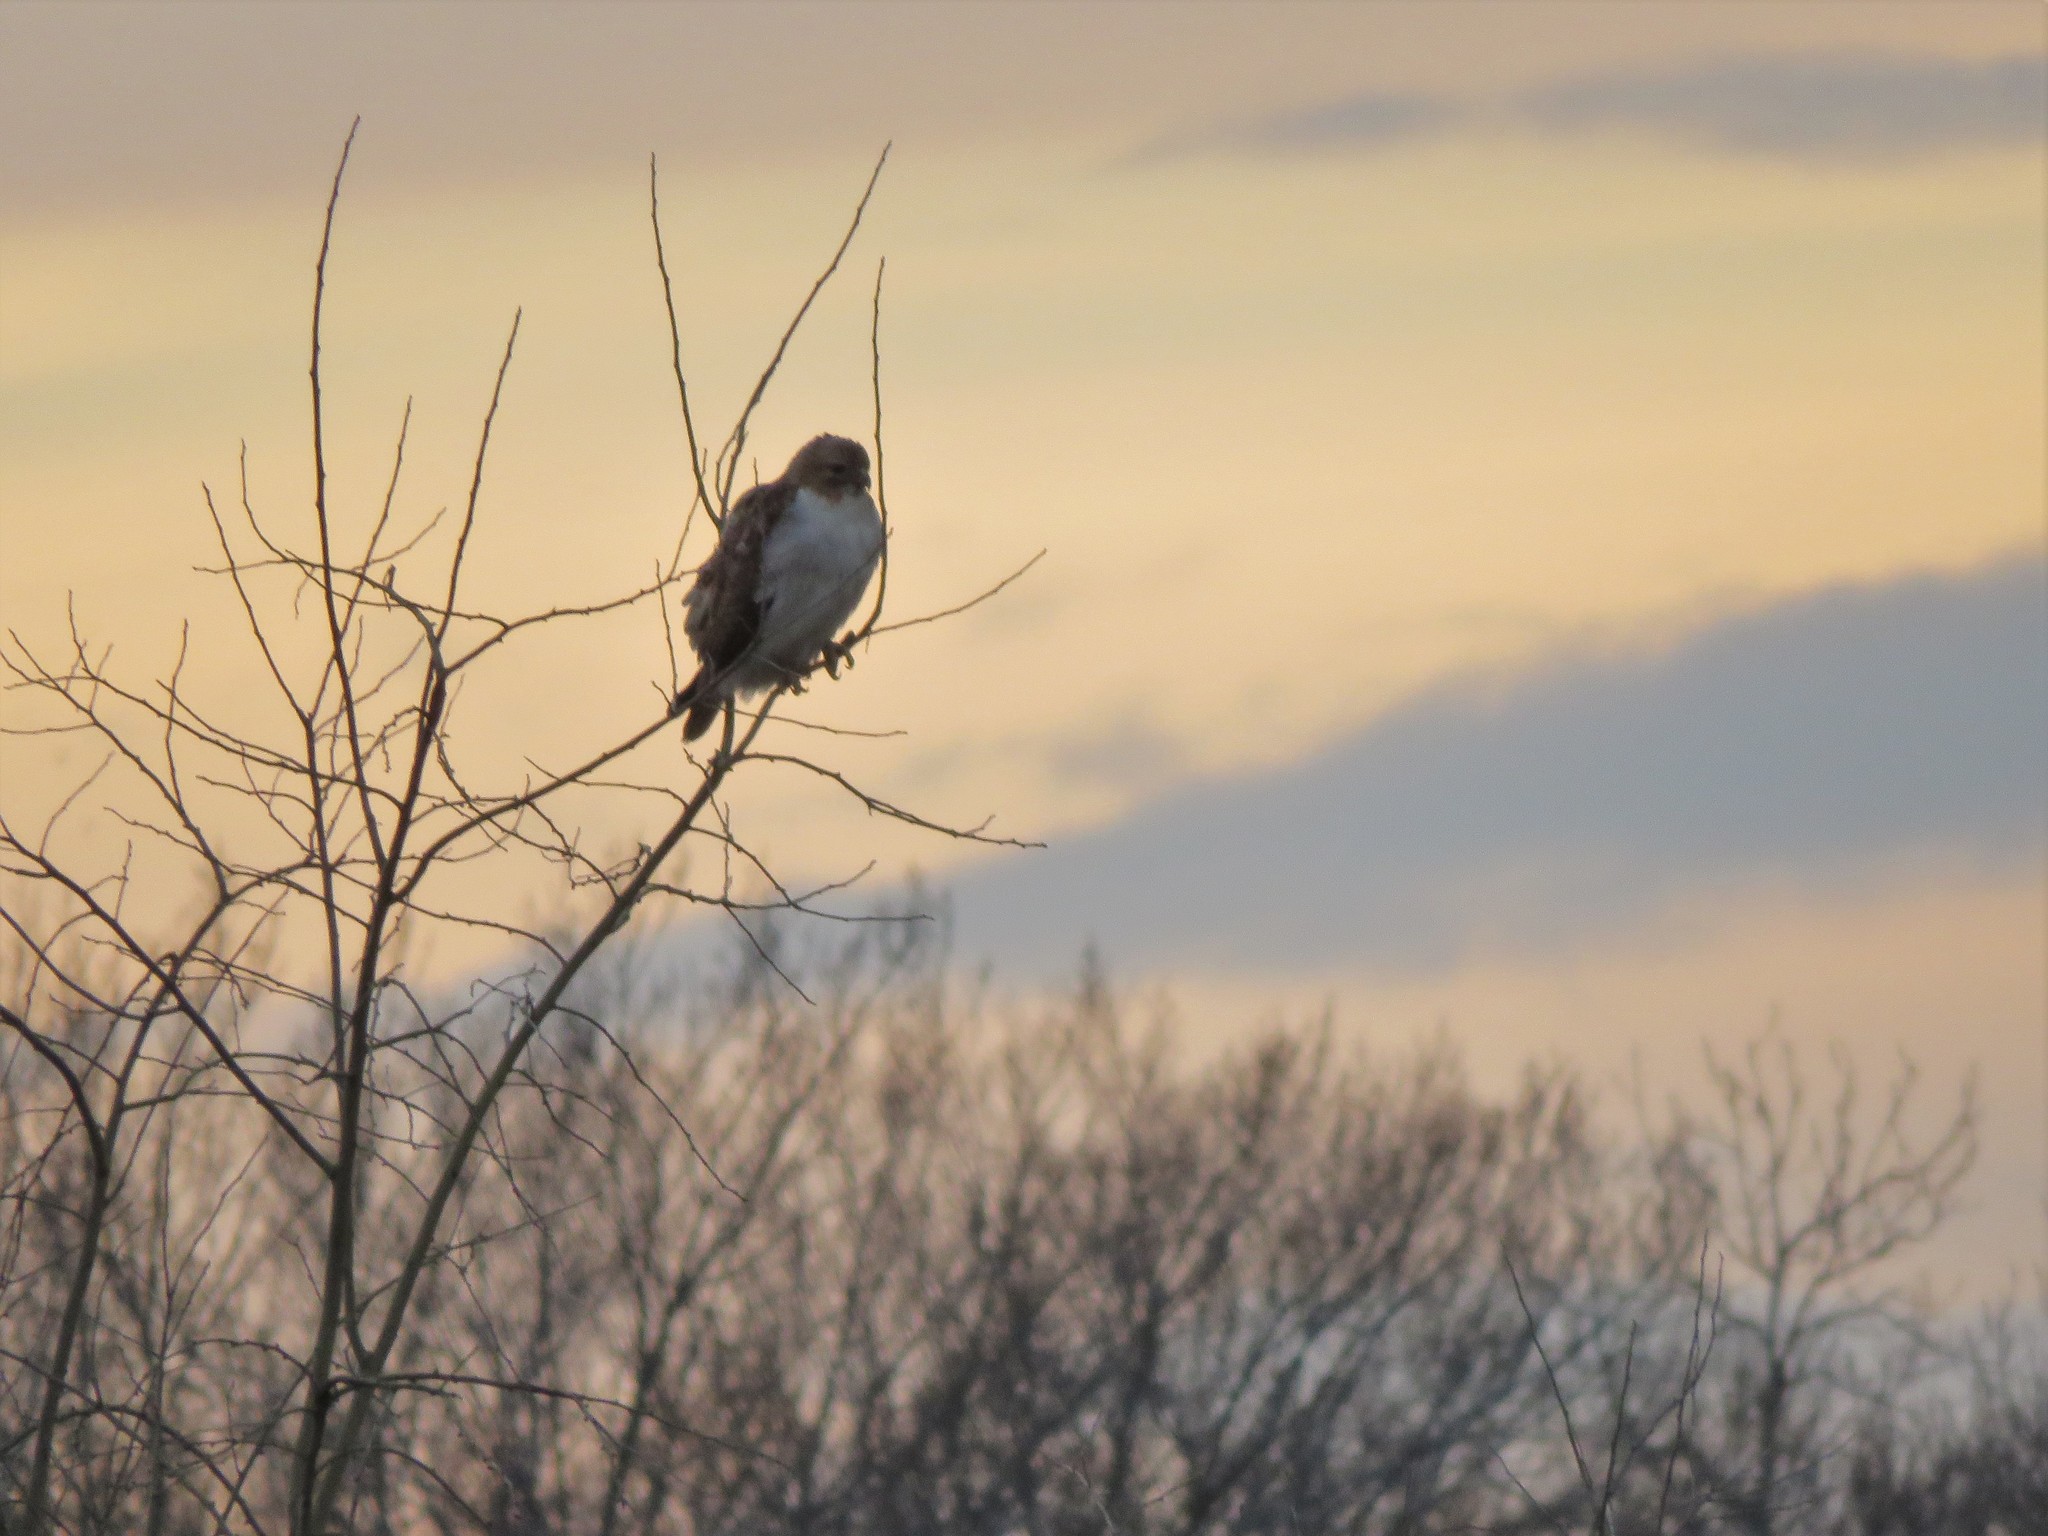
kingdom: Animalia
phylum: Chordata
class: Aves
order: Accipitriformes
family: Accipitridae
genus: Buteo
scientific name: Buteo jamaicensis
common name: Red-tailed hawk
